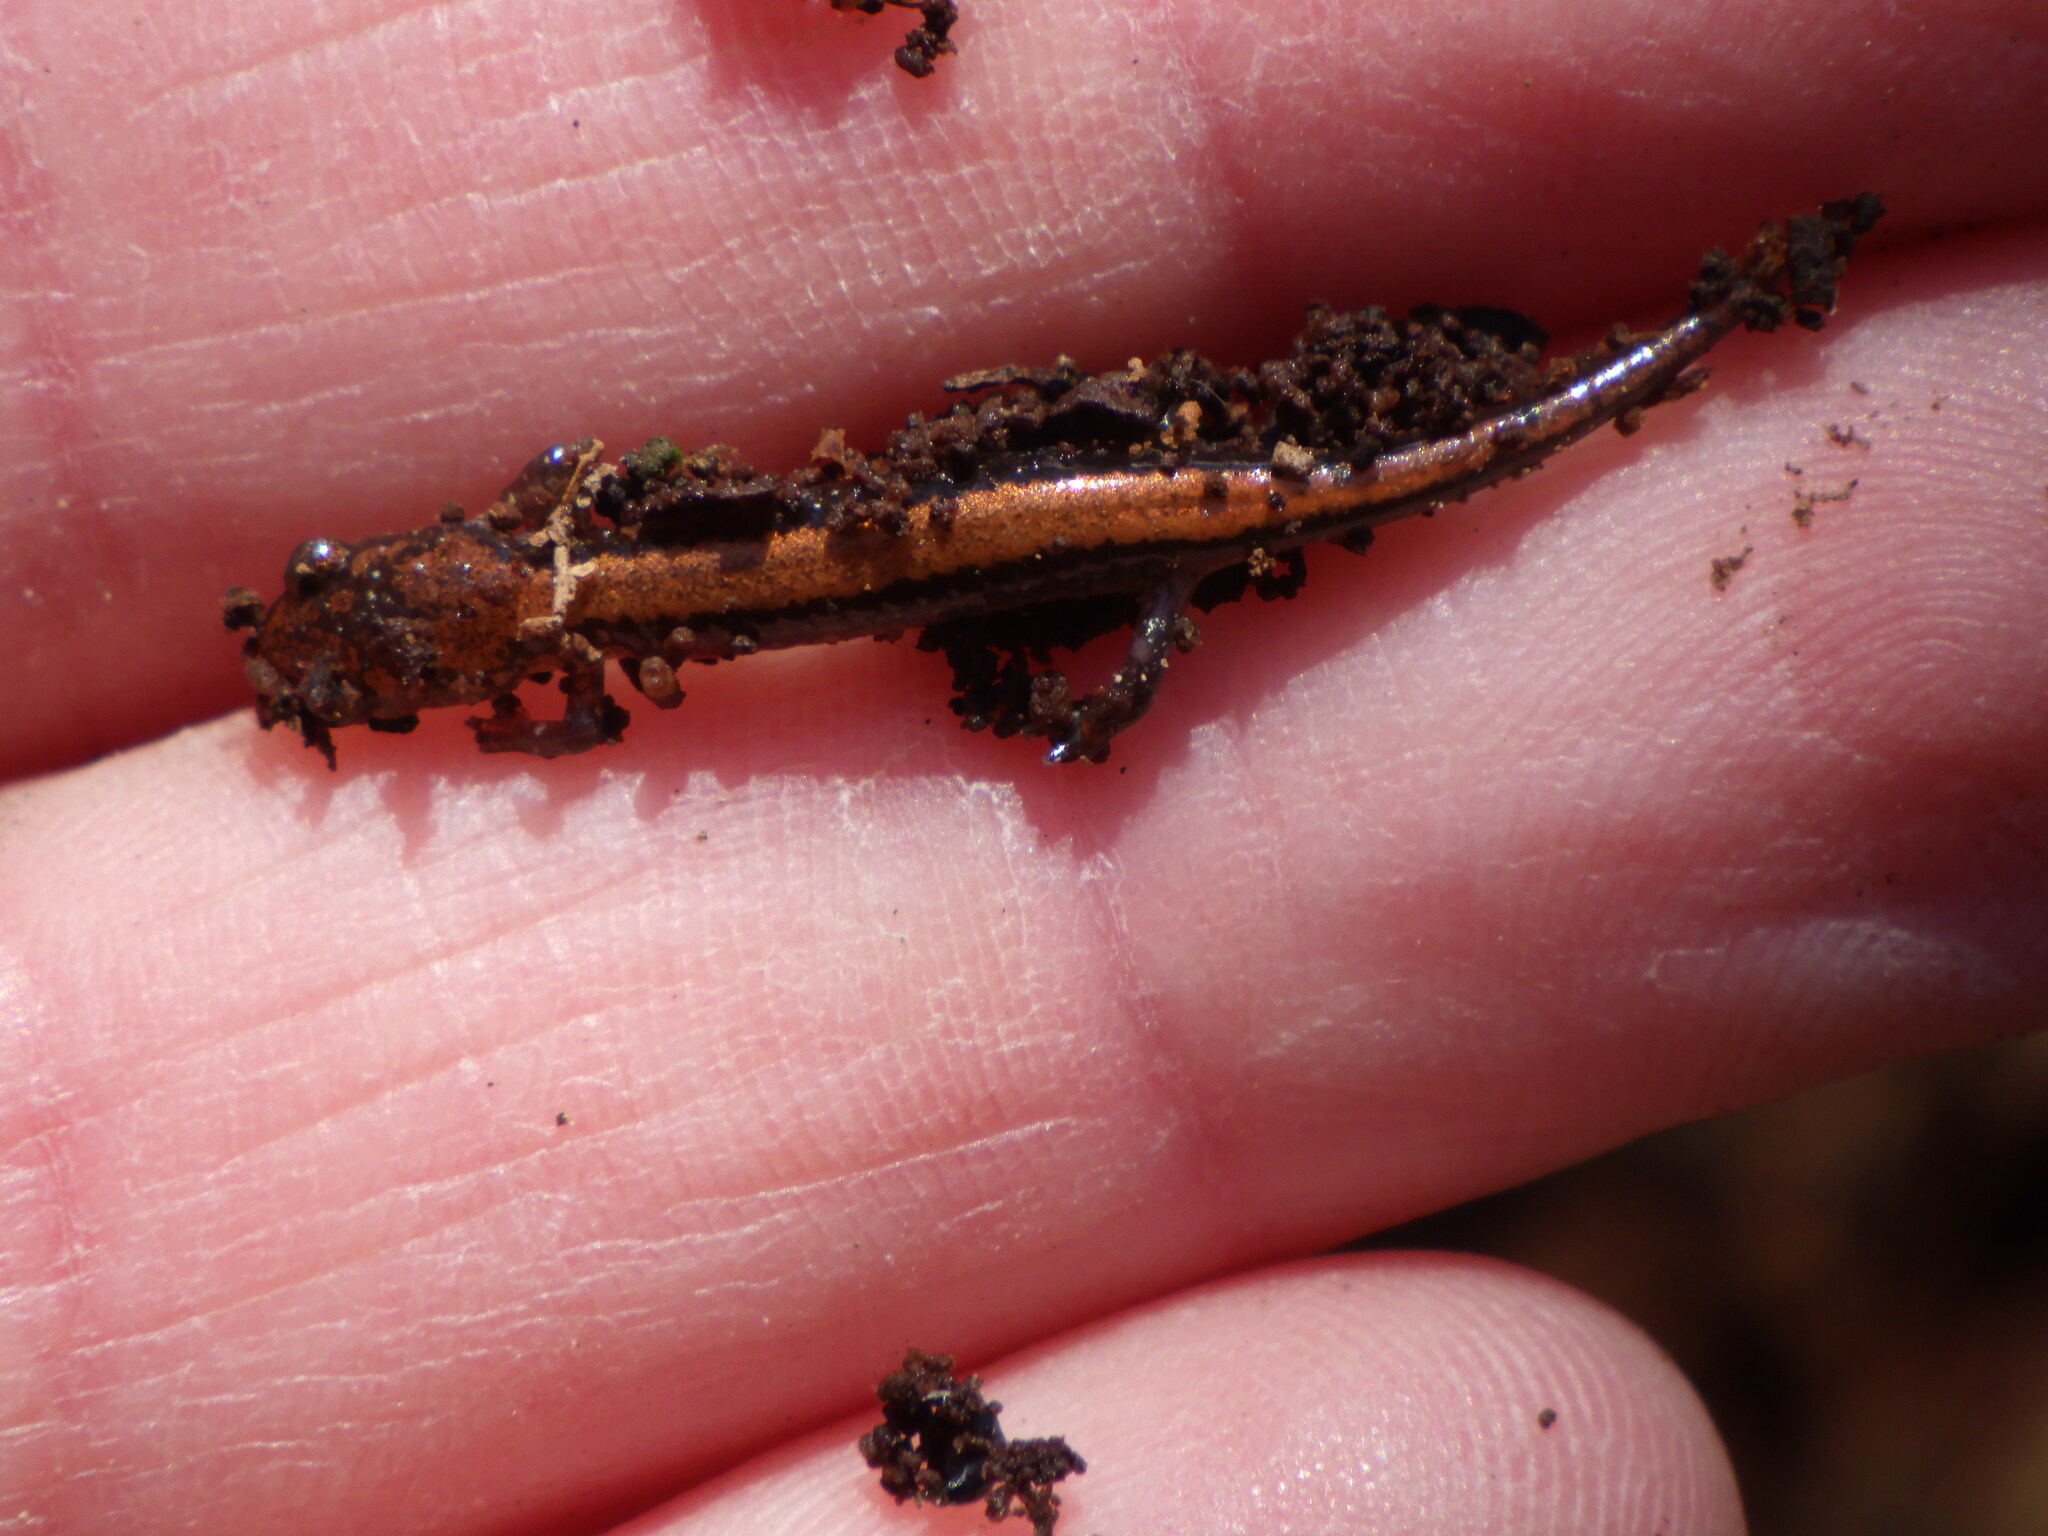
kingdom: Animalia
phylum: Chordata
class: Amphibia
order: Caudata
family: Plethodontidae
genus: Plethodon
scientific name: Plethodon cinereus
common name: Redback salamander
